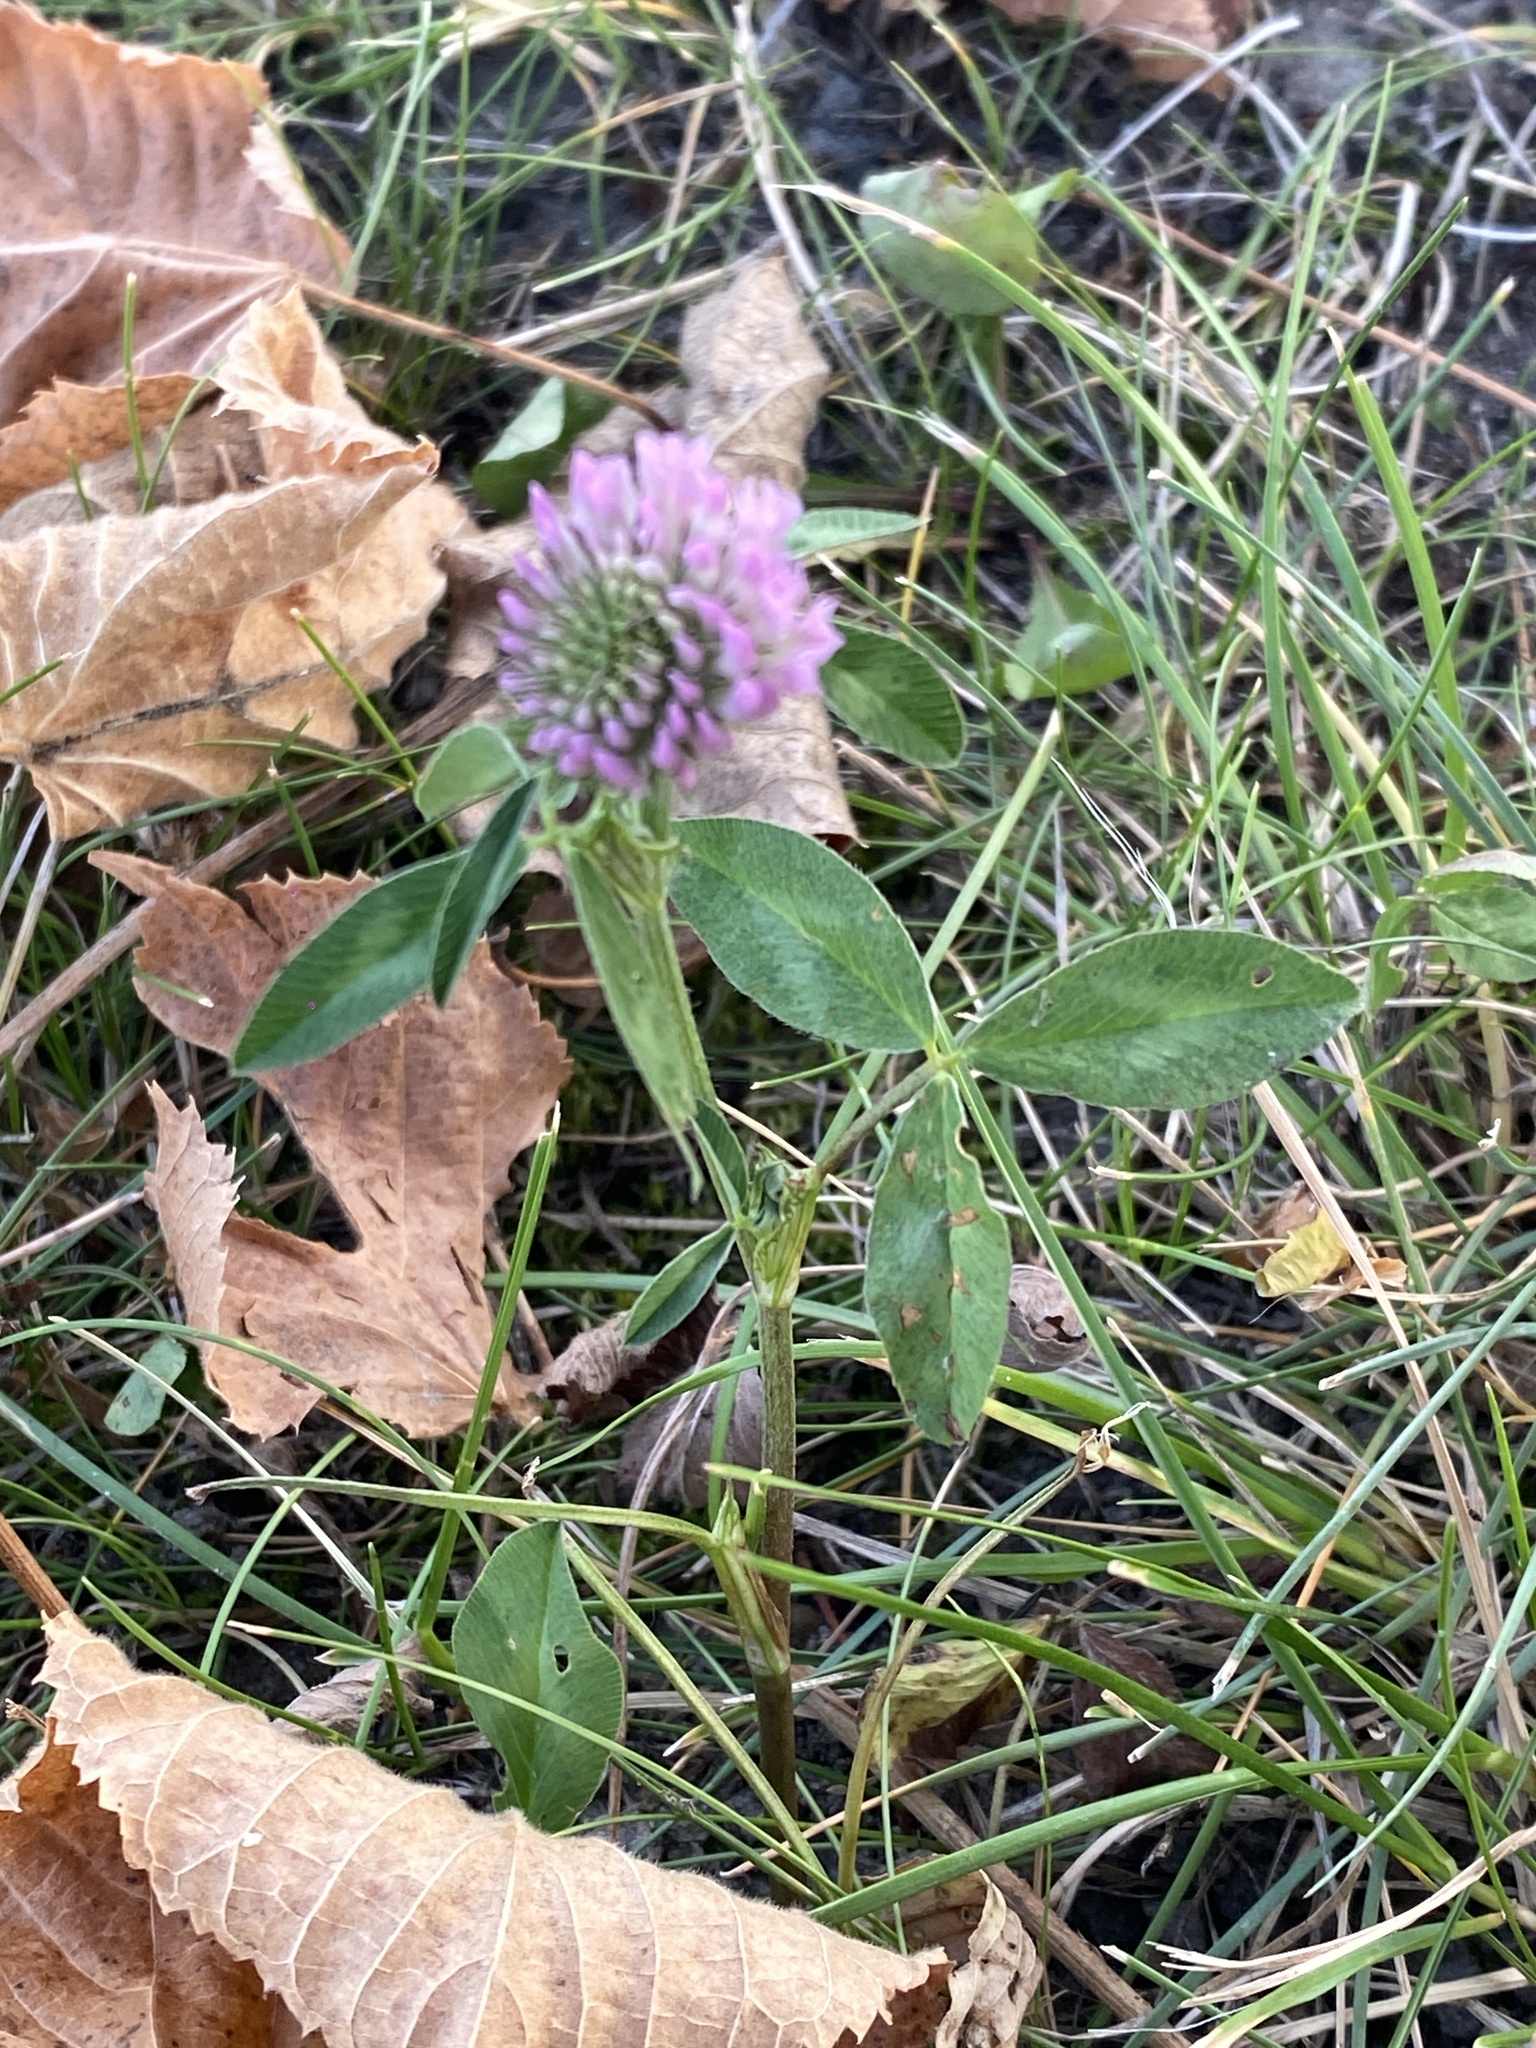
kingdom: Plantae
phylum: Tracheophyta
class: Magnoliopsida
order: Fabales
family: Fabaceae
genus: Trifolium
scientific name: Trifolium pratense
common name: Red clover
